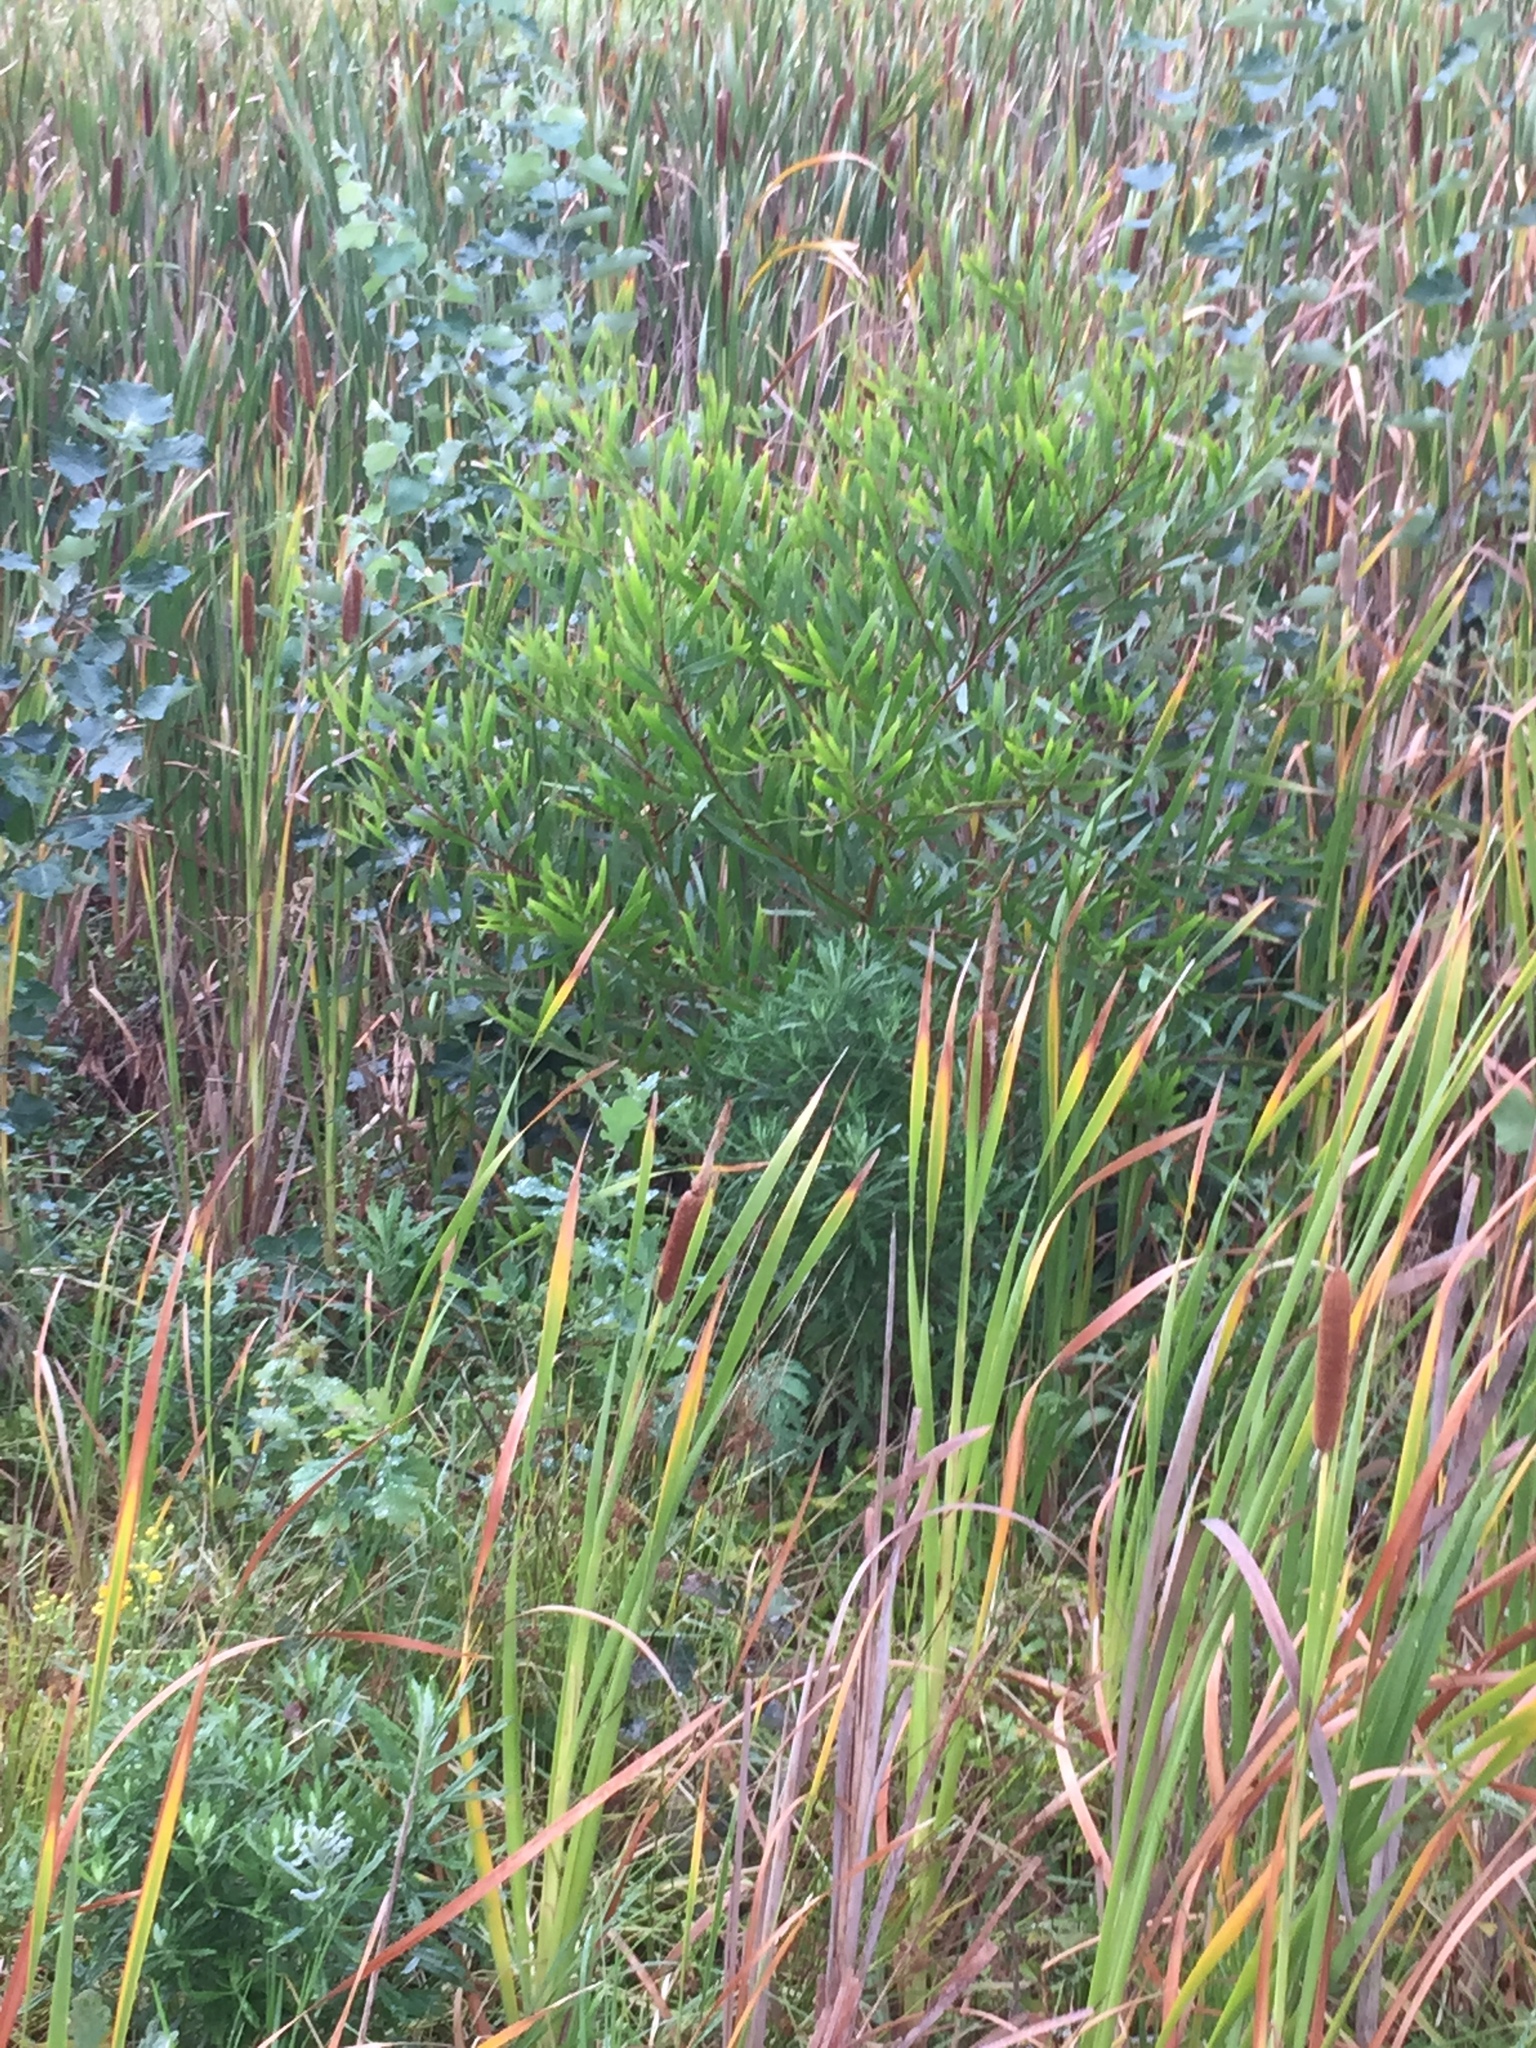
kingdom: Plantae
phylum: Tracheophyta
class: Magnoliopsida
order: Fabales
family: Fabaceae
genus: Acacia
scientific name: Acacia longifolia
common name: Sydney golden wattle
